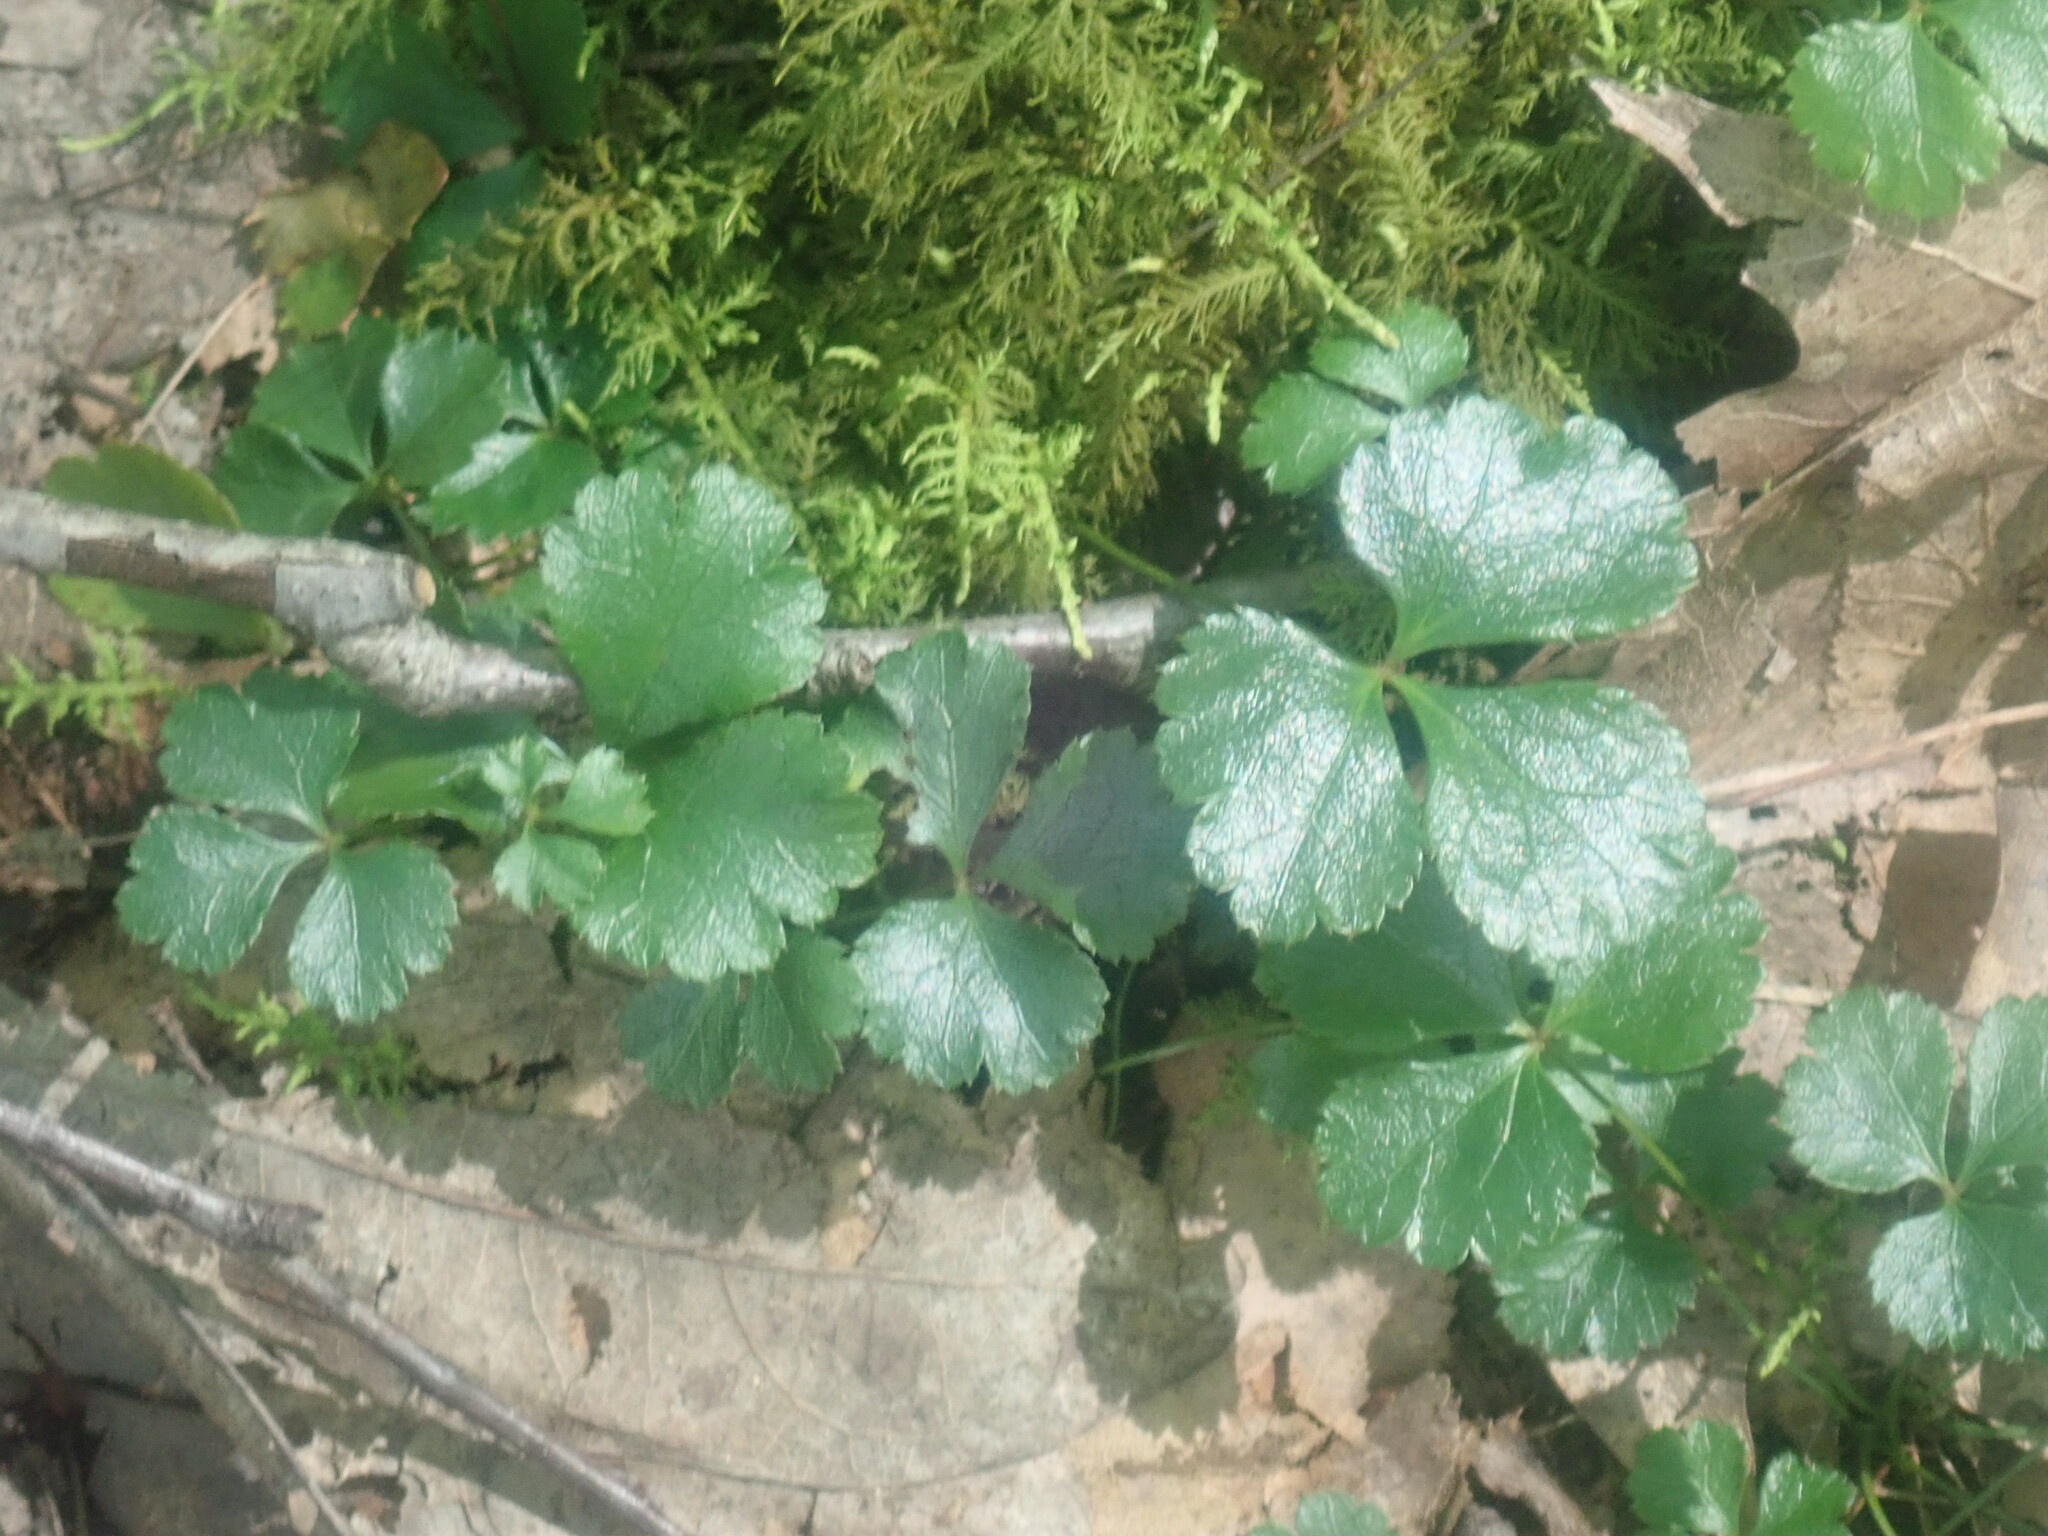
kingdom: Plantae
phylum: Tracheophyta
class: Magnoliopsida
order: Ranunculales
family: Ranunculaceae
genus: Coptis
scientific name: Coptis trifolia
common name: Canker-root
